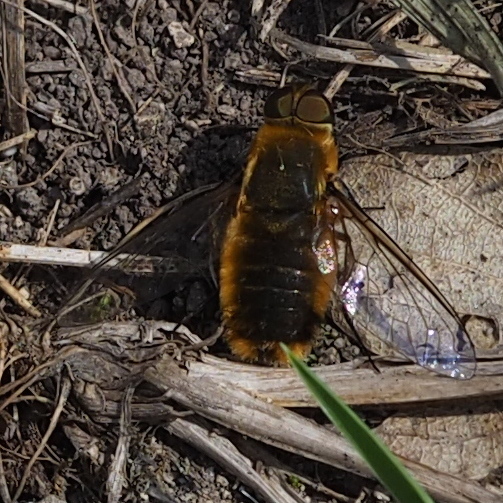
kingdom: Animalia
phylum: Arthropoda
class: Insecta
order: Diptera
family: Bombyliidae
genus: Villa
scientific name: Villa hottentotta
